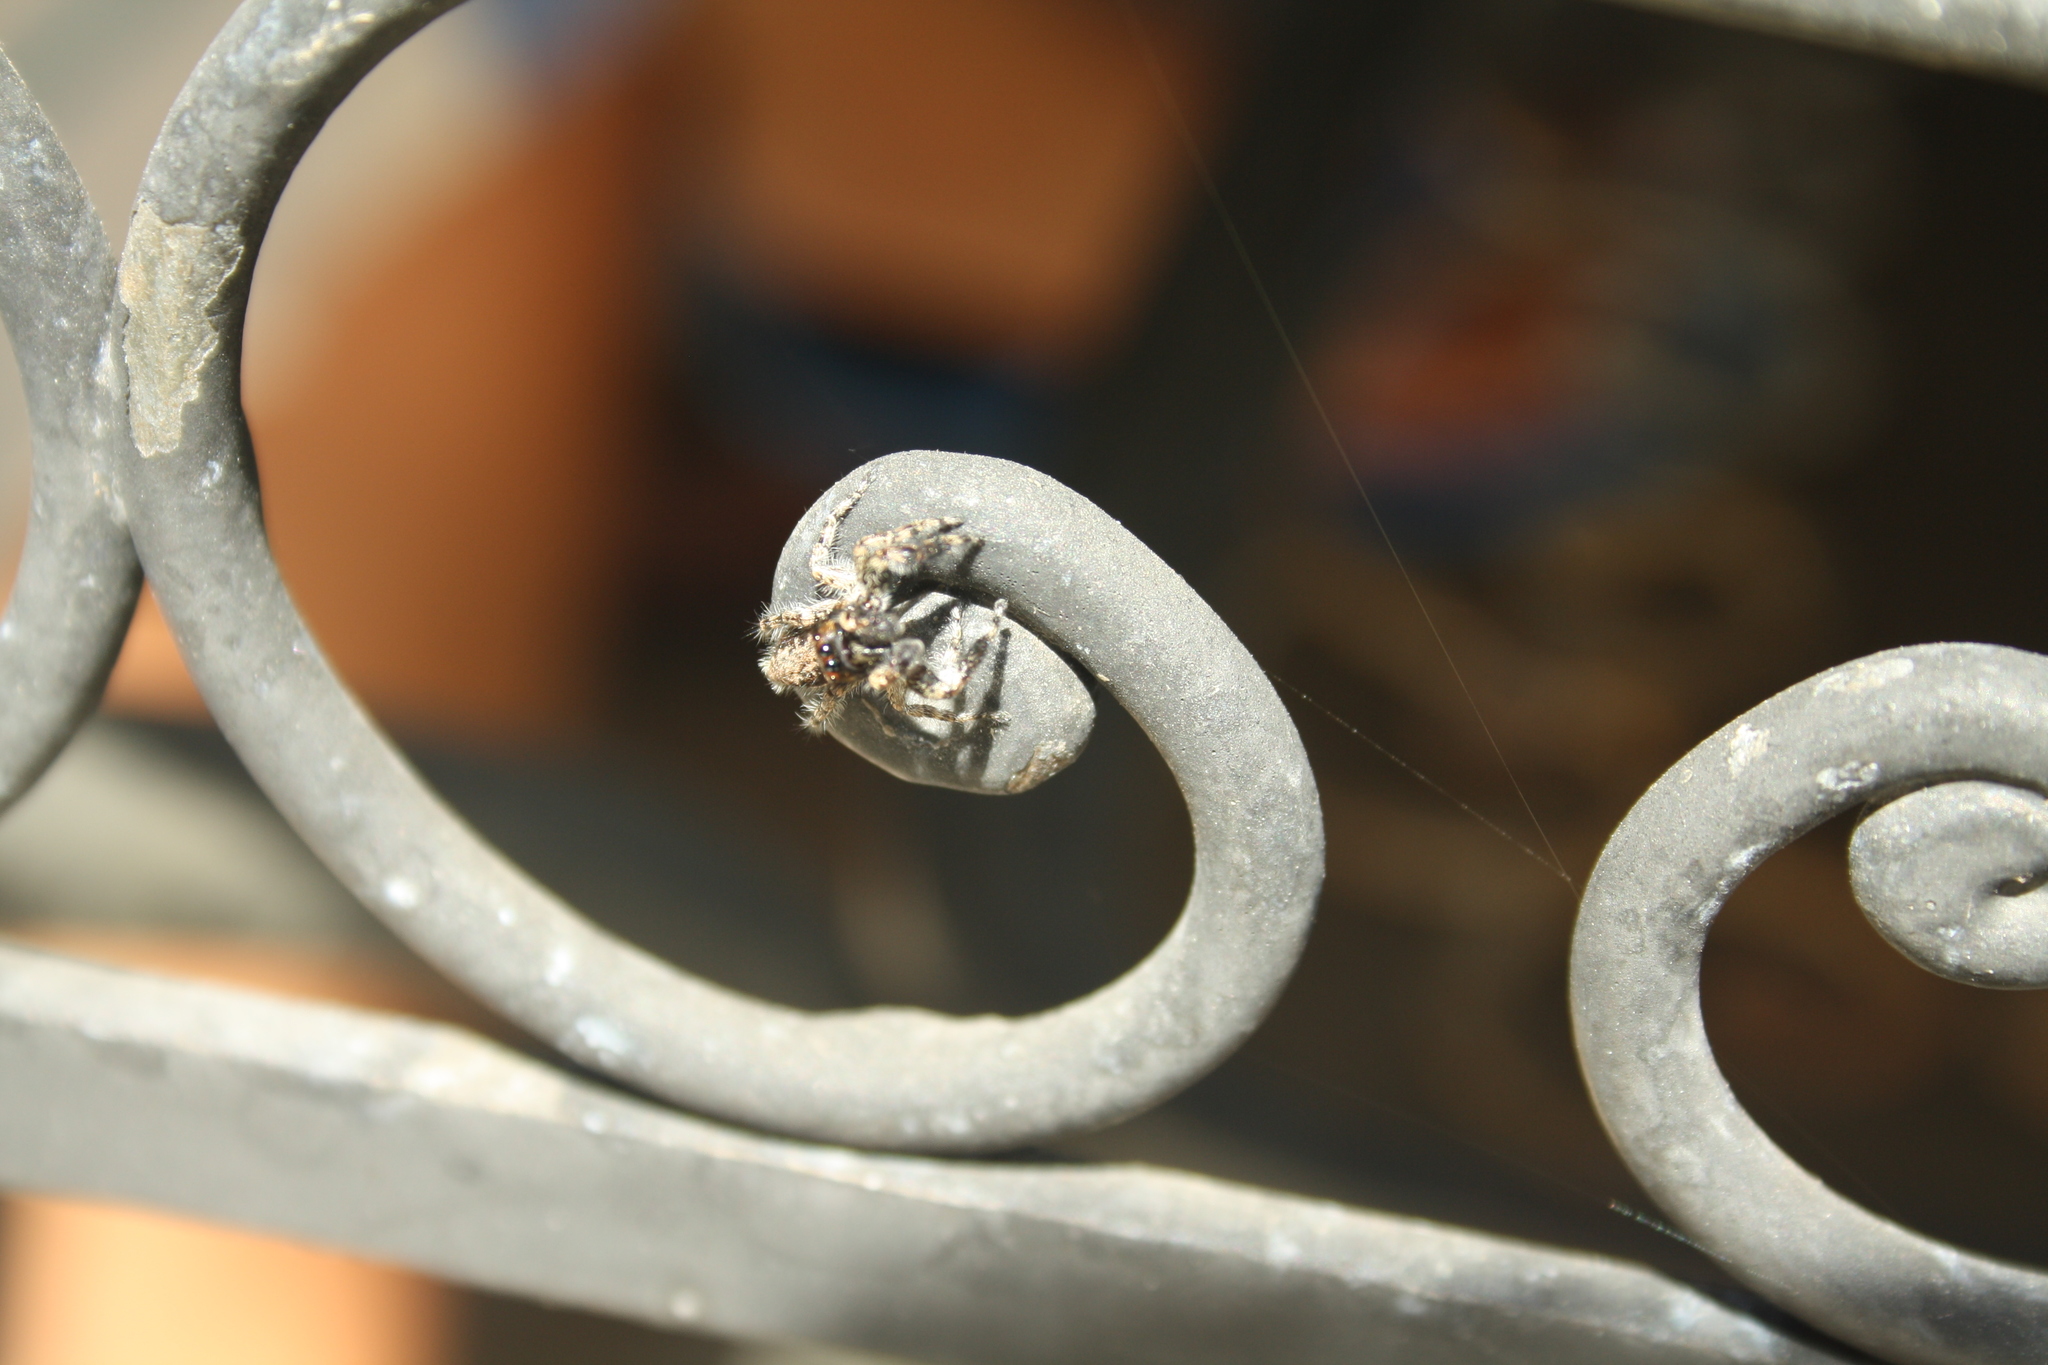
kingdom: Animalia
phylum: Arthropoda
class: Arachnida
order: Araneae
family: Salticidae
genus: Menemerus
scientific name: Menemerus taeniatus
